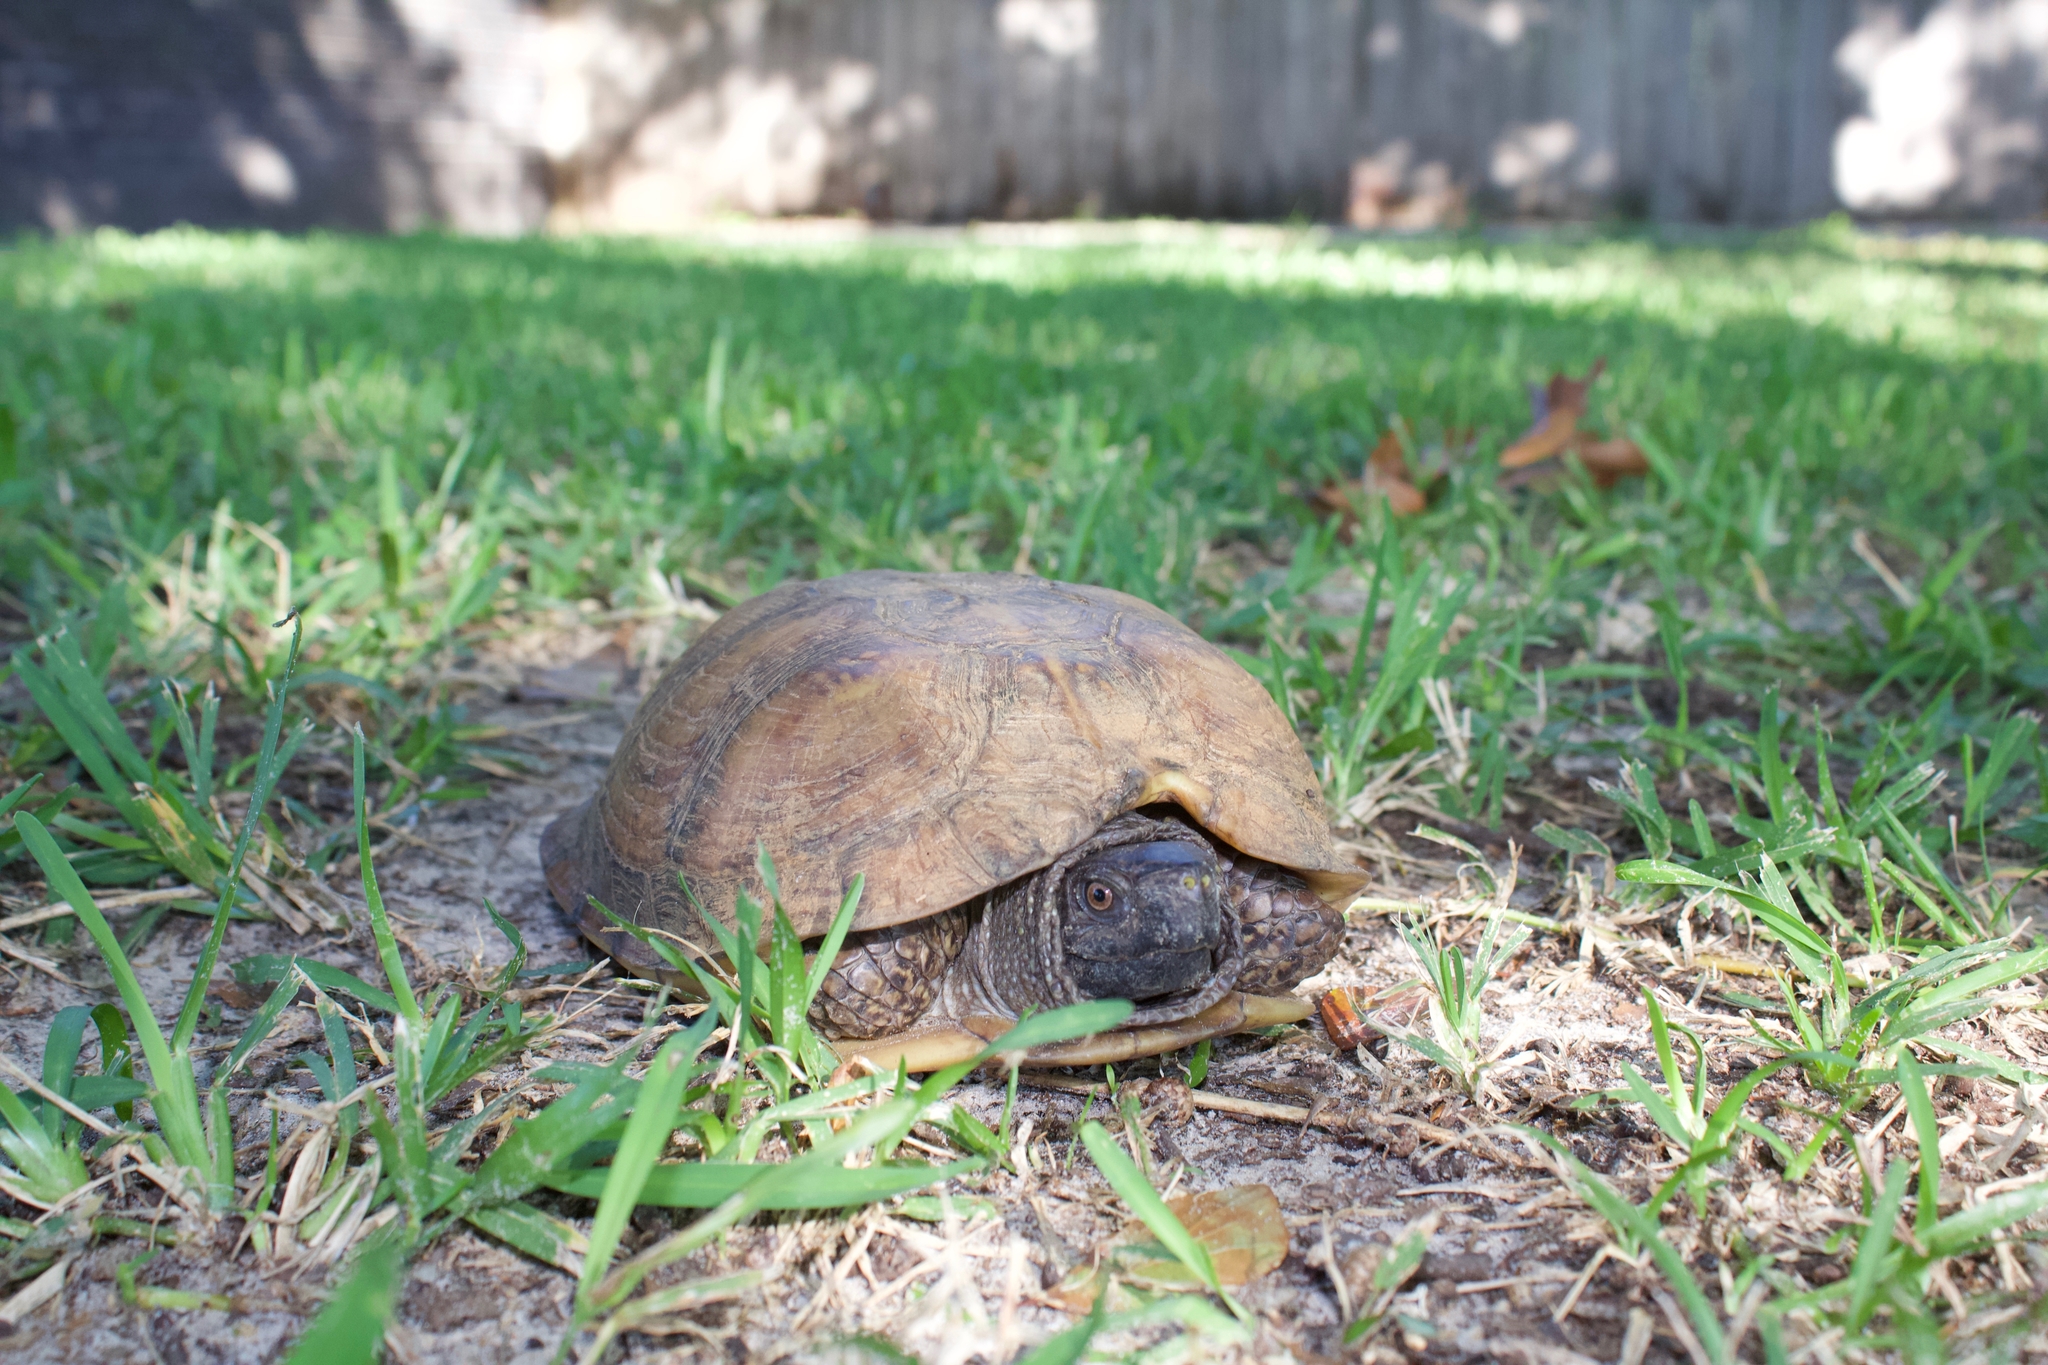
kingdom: Animalia
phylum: Chordata
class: Testudines
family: Emydidae
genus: Terrapene
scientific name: Terrapene carolina
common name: Common box turtle
